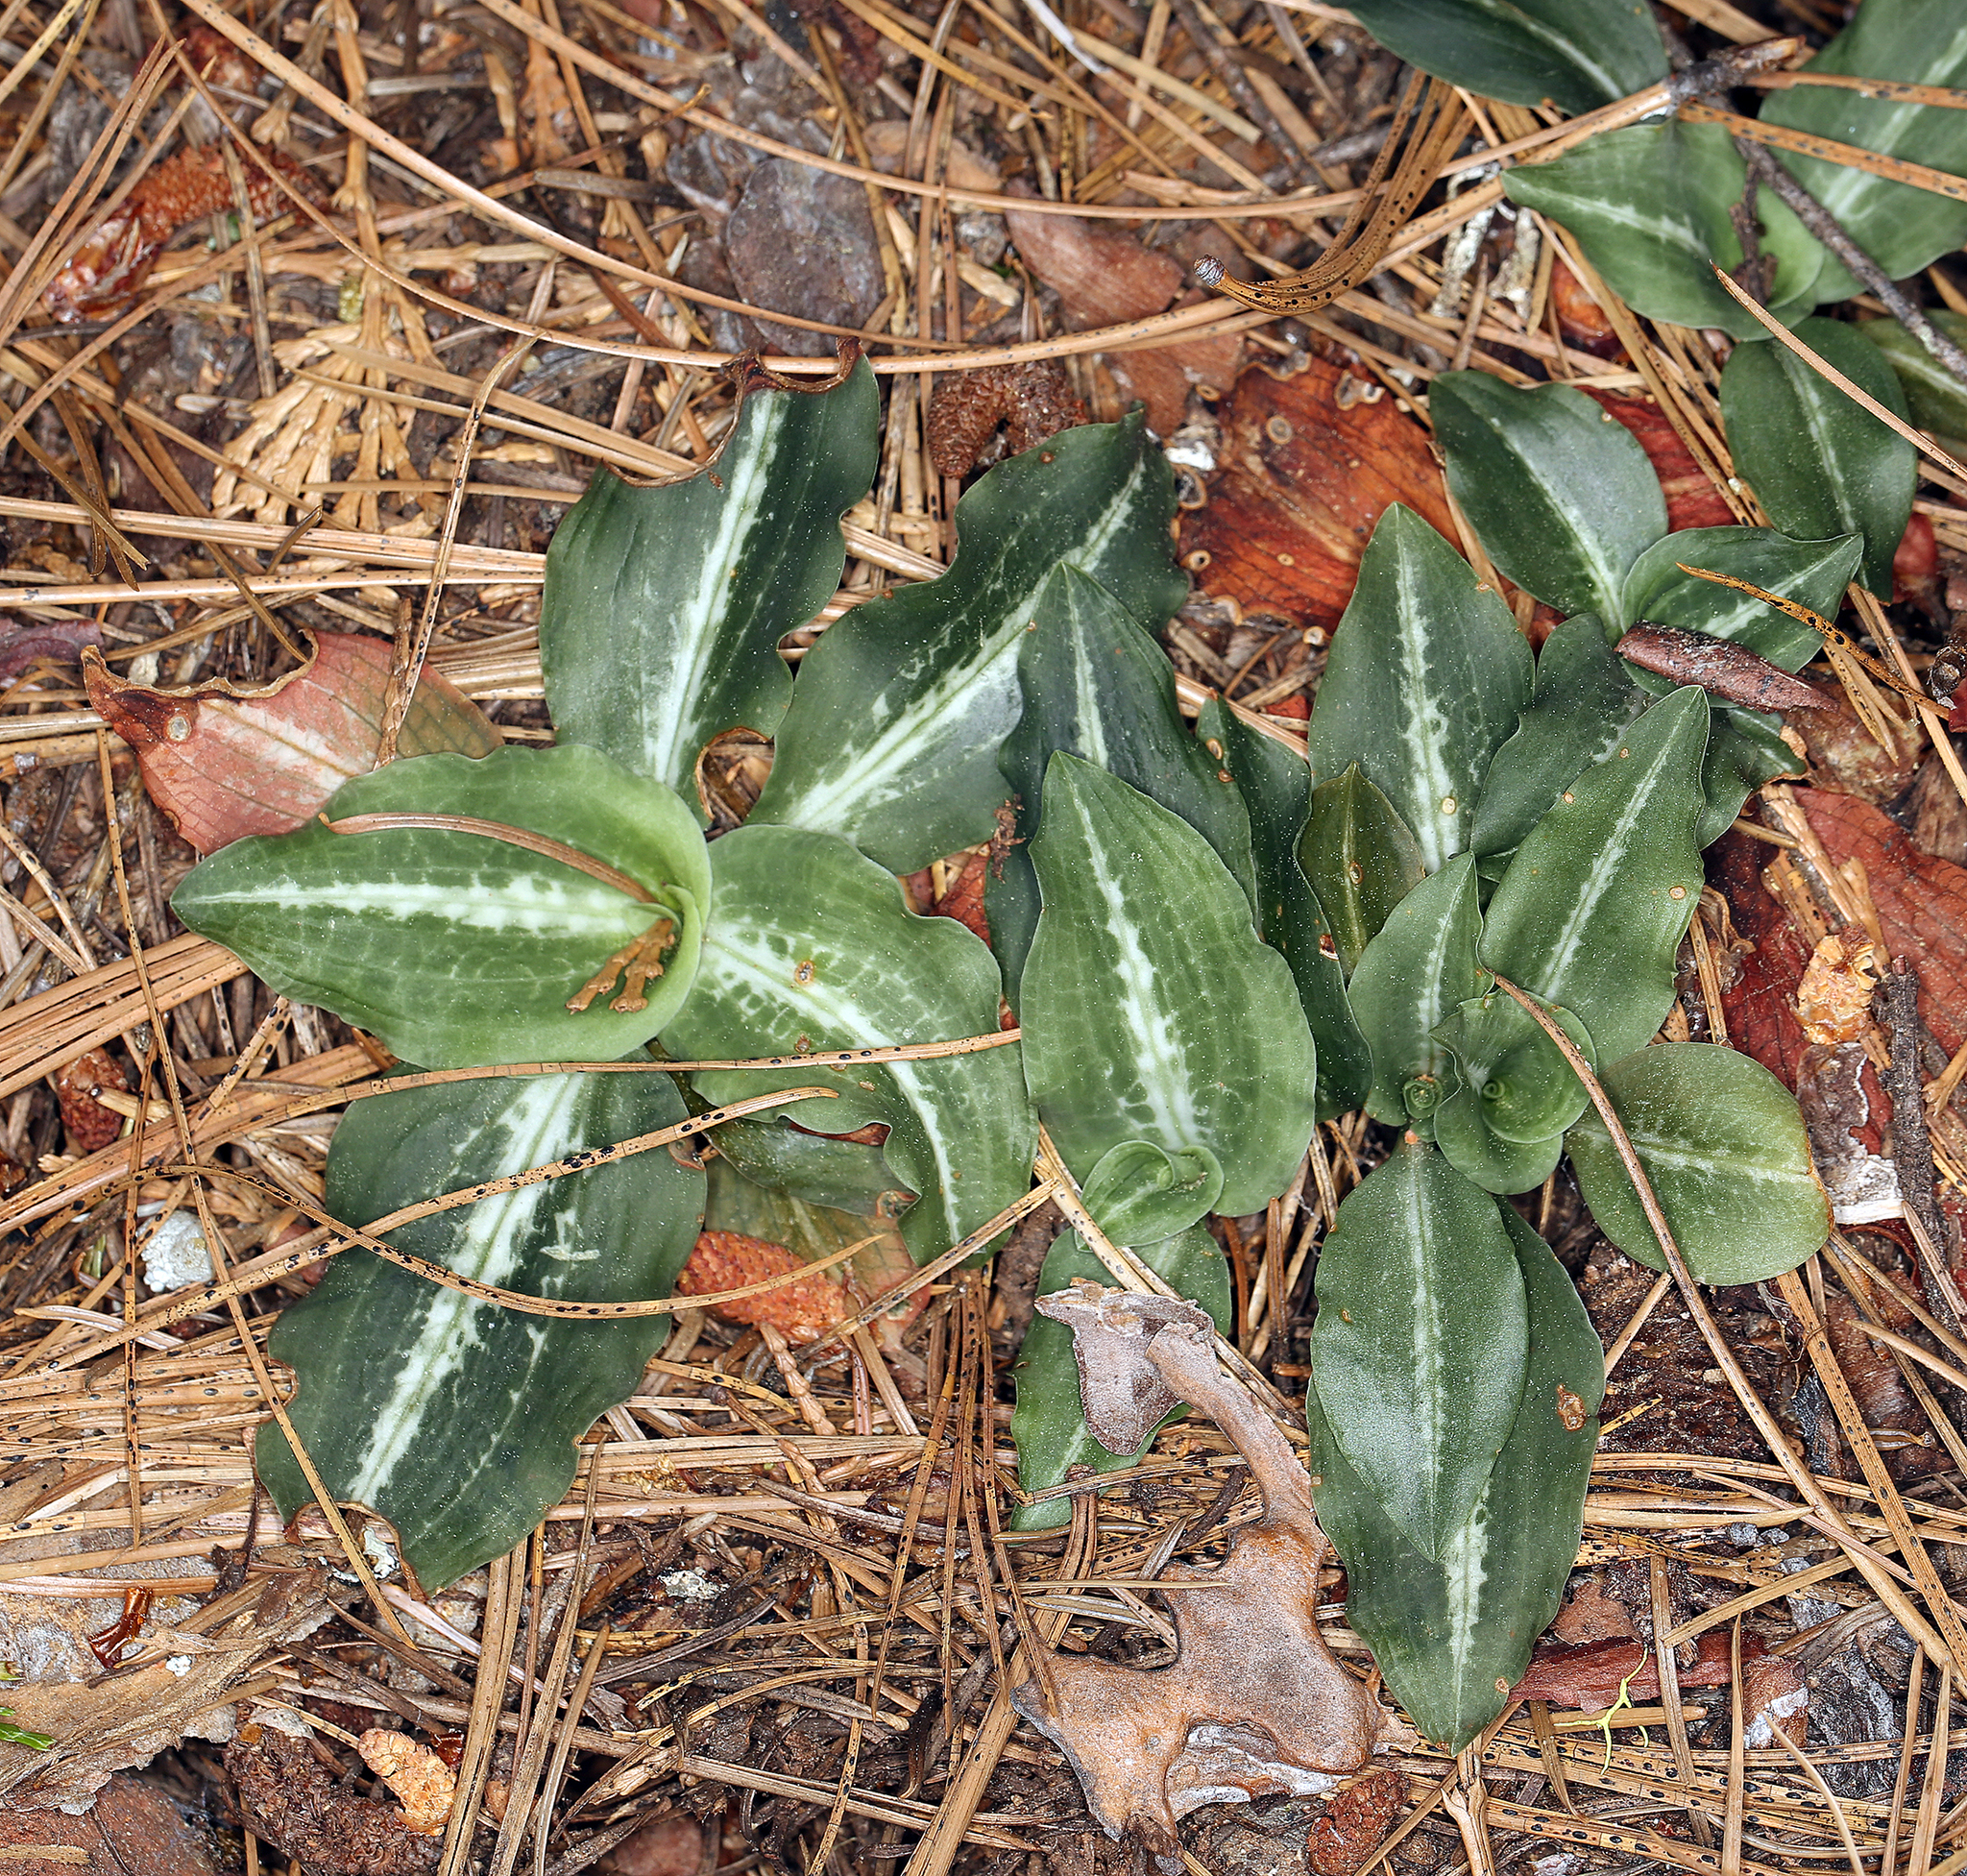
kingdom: Plantae
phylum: Tracheophyta
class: Liliopsida
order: Asparagales
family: Orchidaceae
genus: Goodyera
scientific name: Goodyera oblongifolia
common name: Giant rattlesnake-plantain
